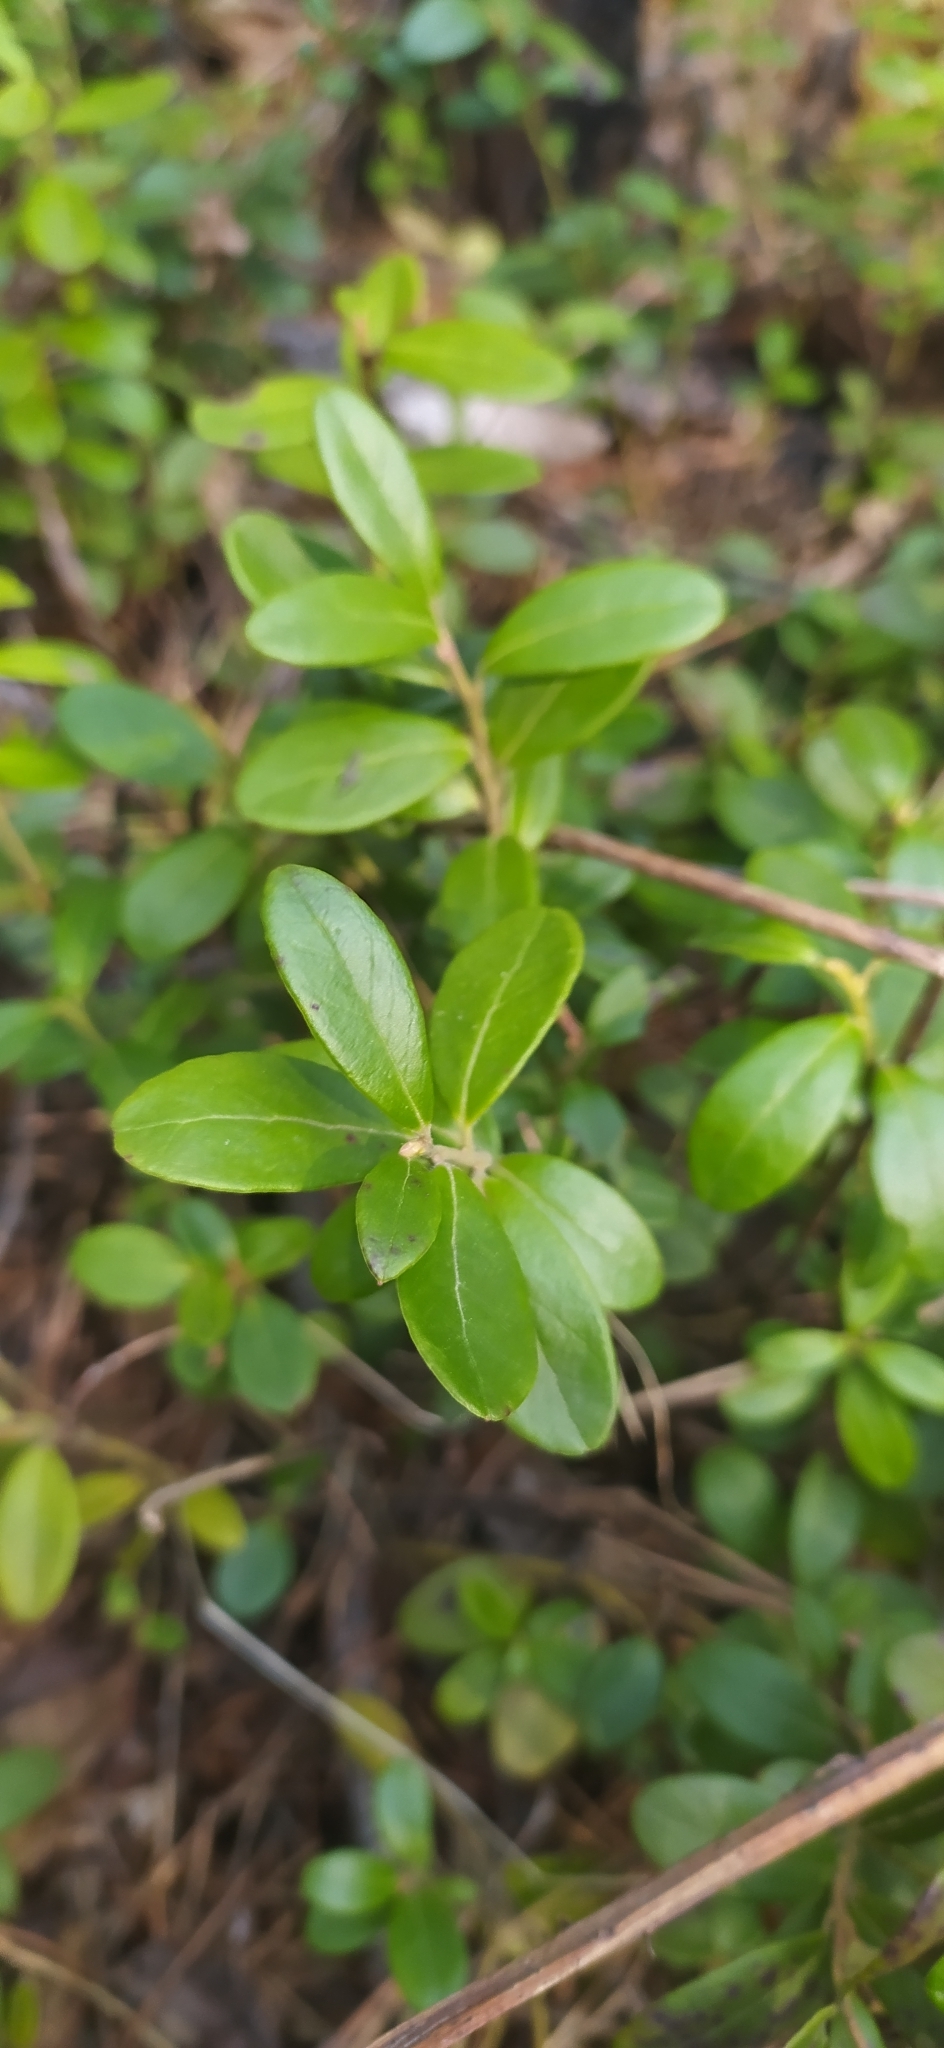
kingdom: Plantae
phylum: Tracheophyta
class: Magnoliopsida
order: Ericales
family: Ericaceae
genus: Vaccinium
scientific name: Vaccinium vitis-idaea
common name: Cowberry
